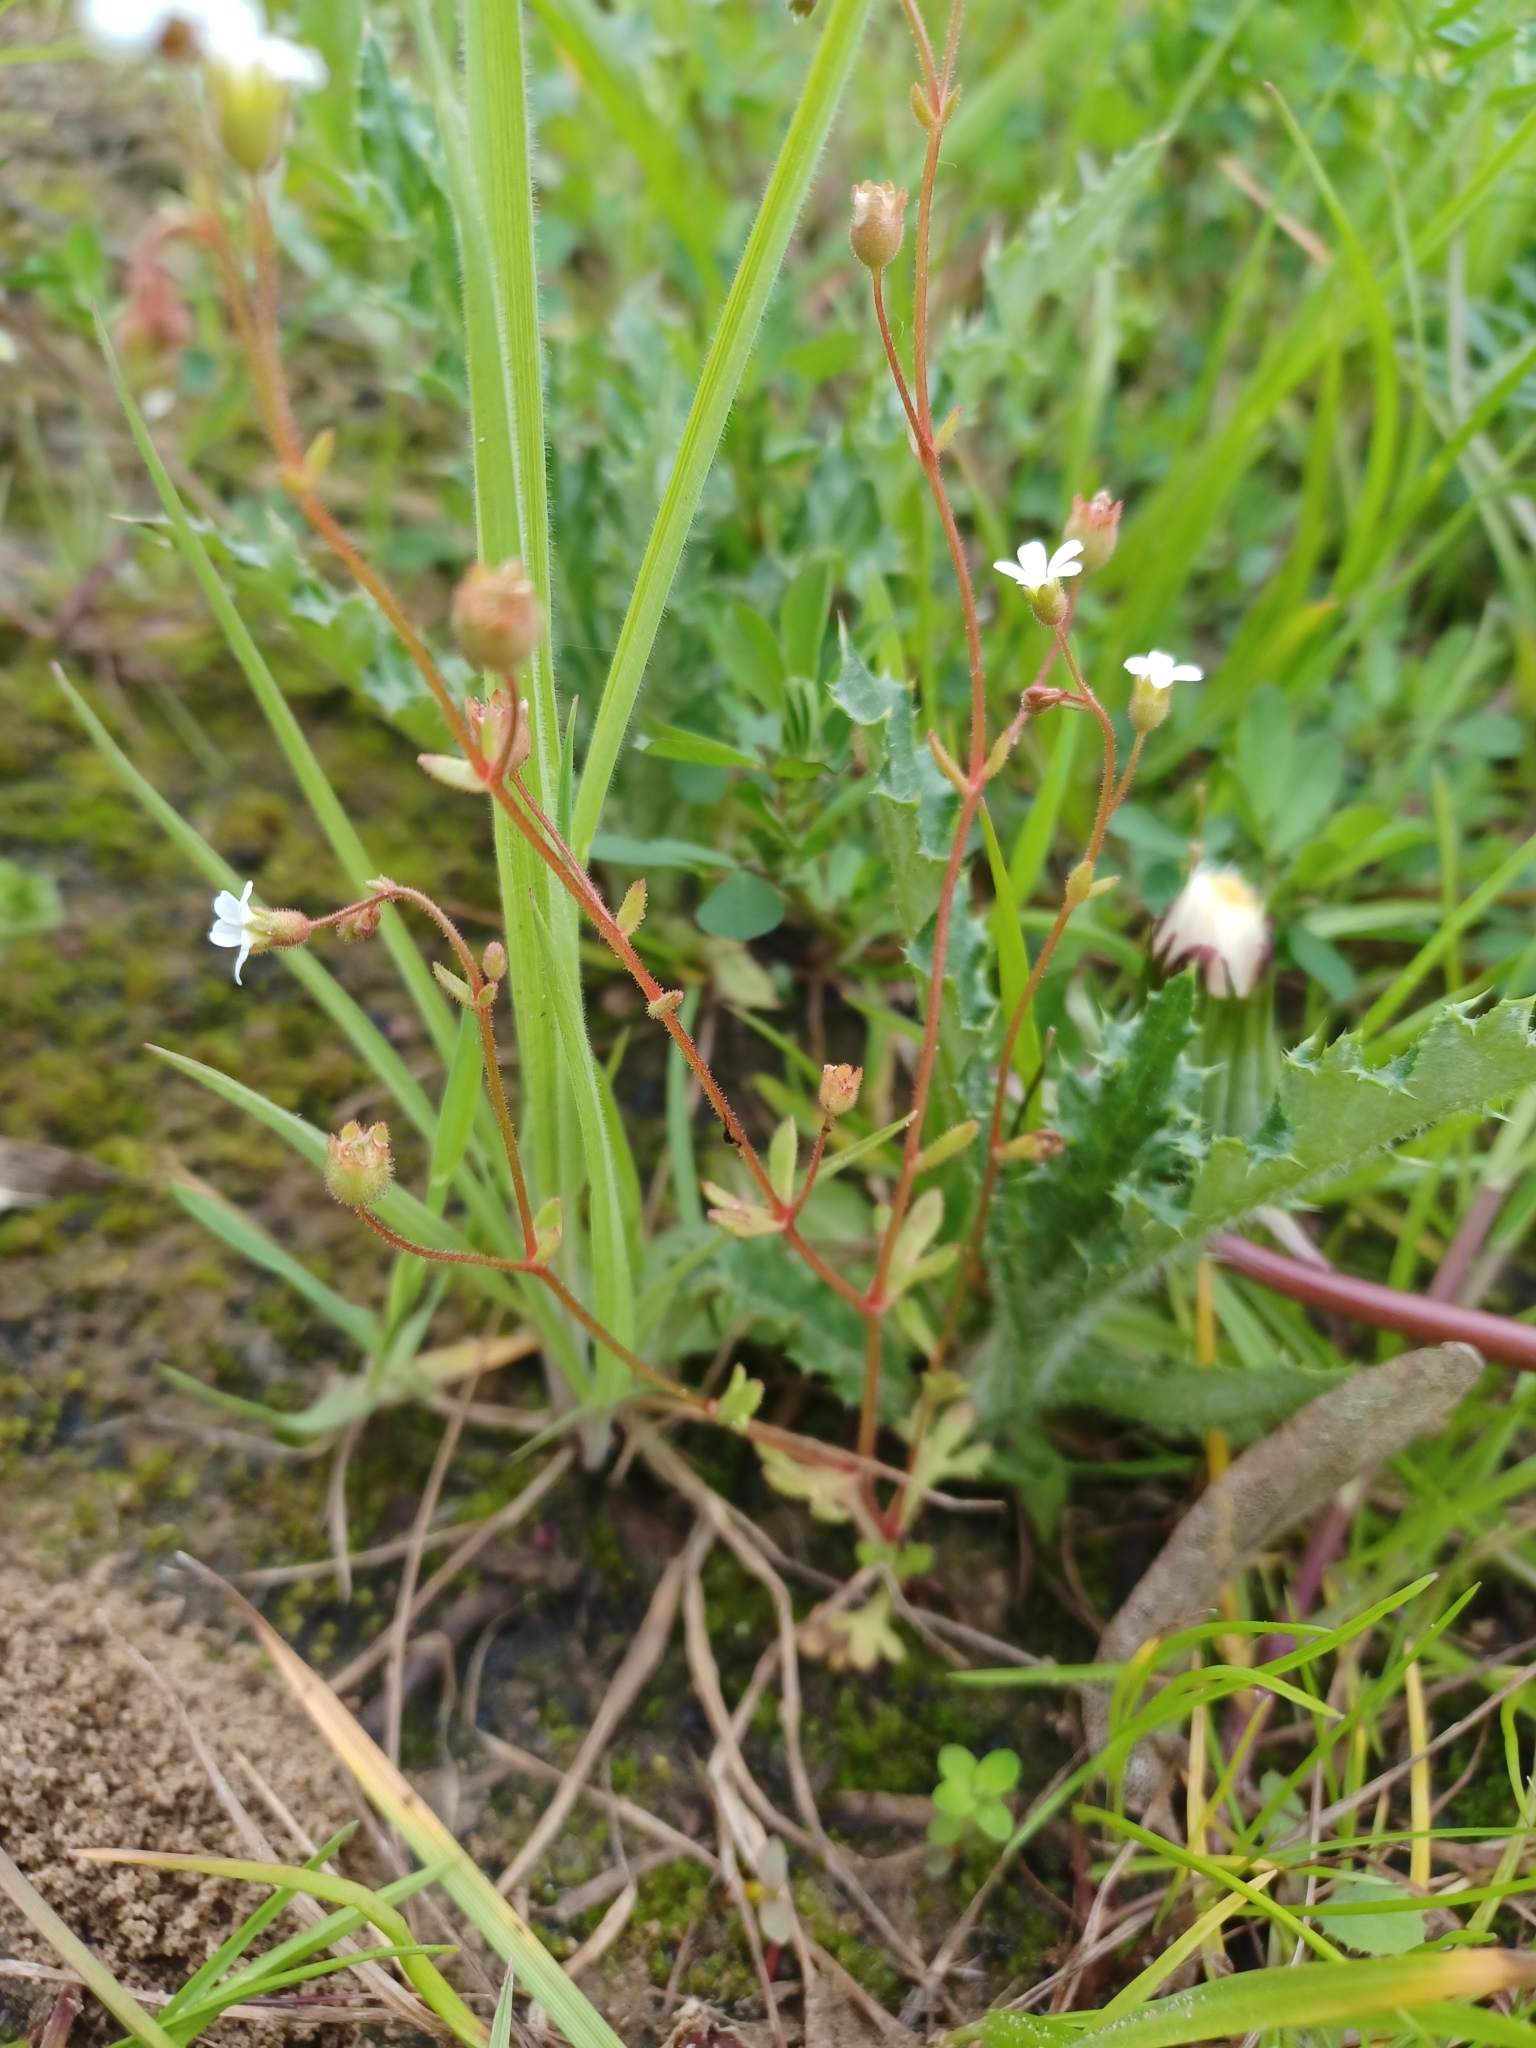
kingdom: Plantae
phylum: Tracheophyta
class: Magnoliopsida
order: Saxifragales
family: Saxifragaceae
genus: Saxifraga
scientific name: Saxifraga tridactylites
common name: Rue-leaved saxifrage
